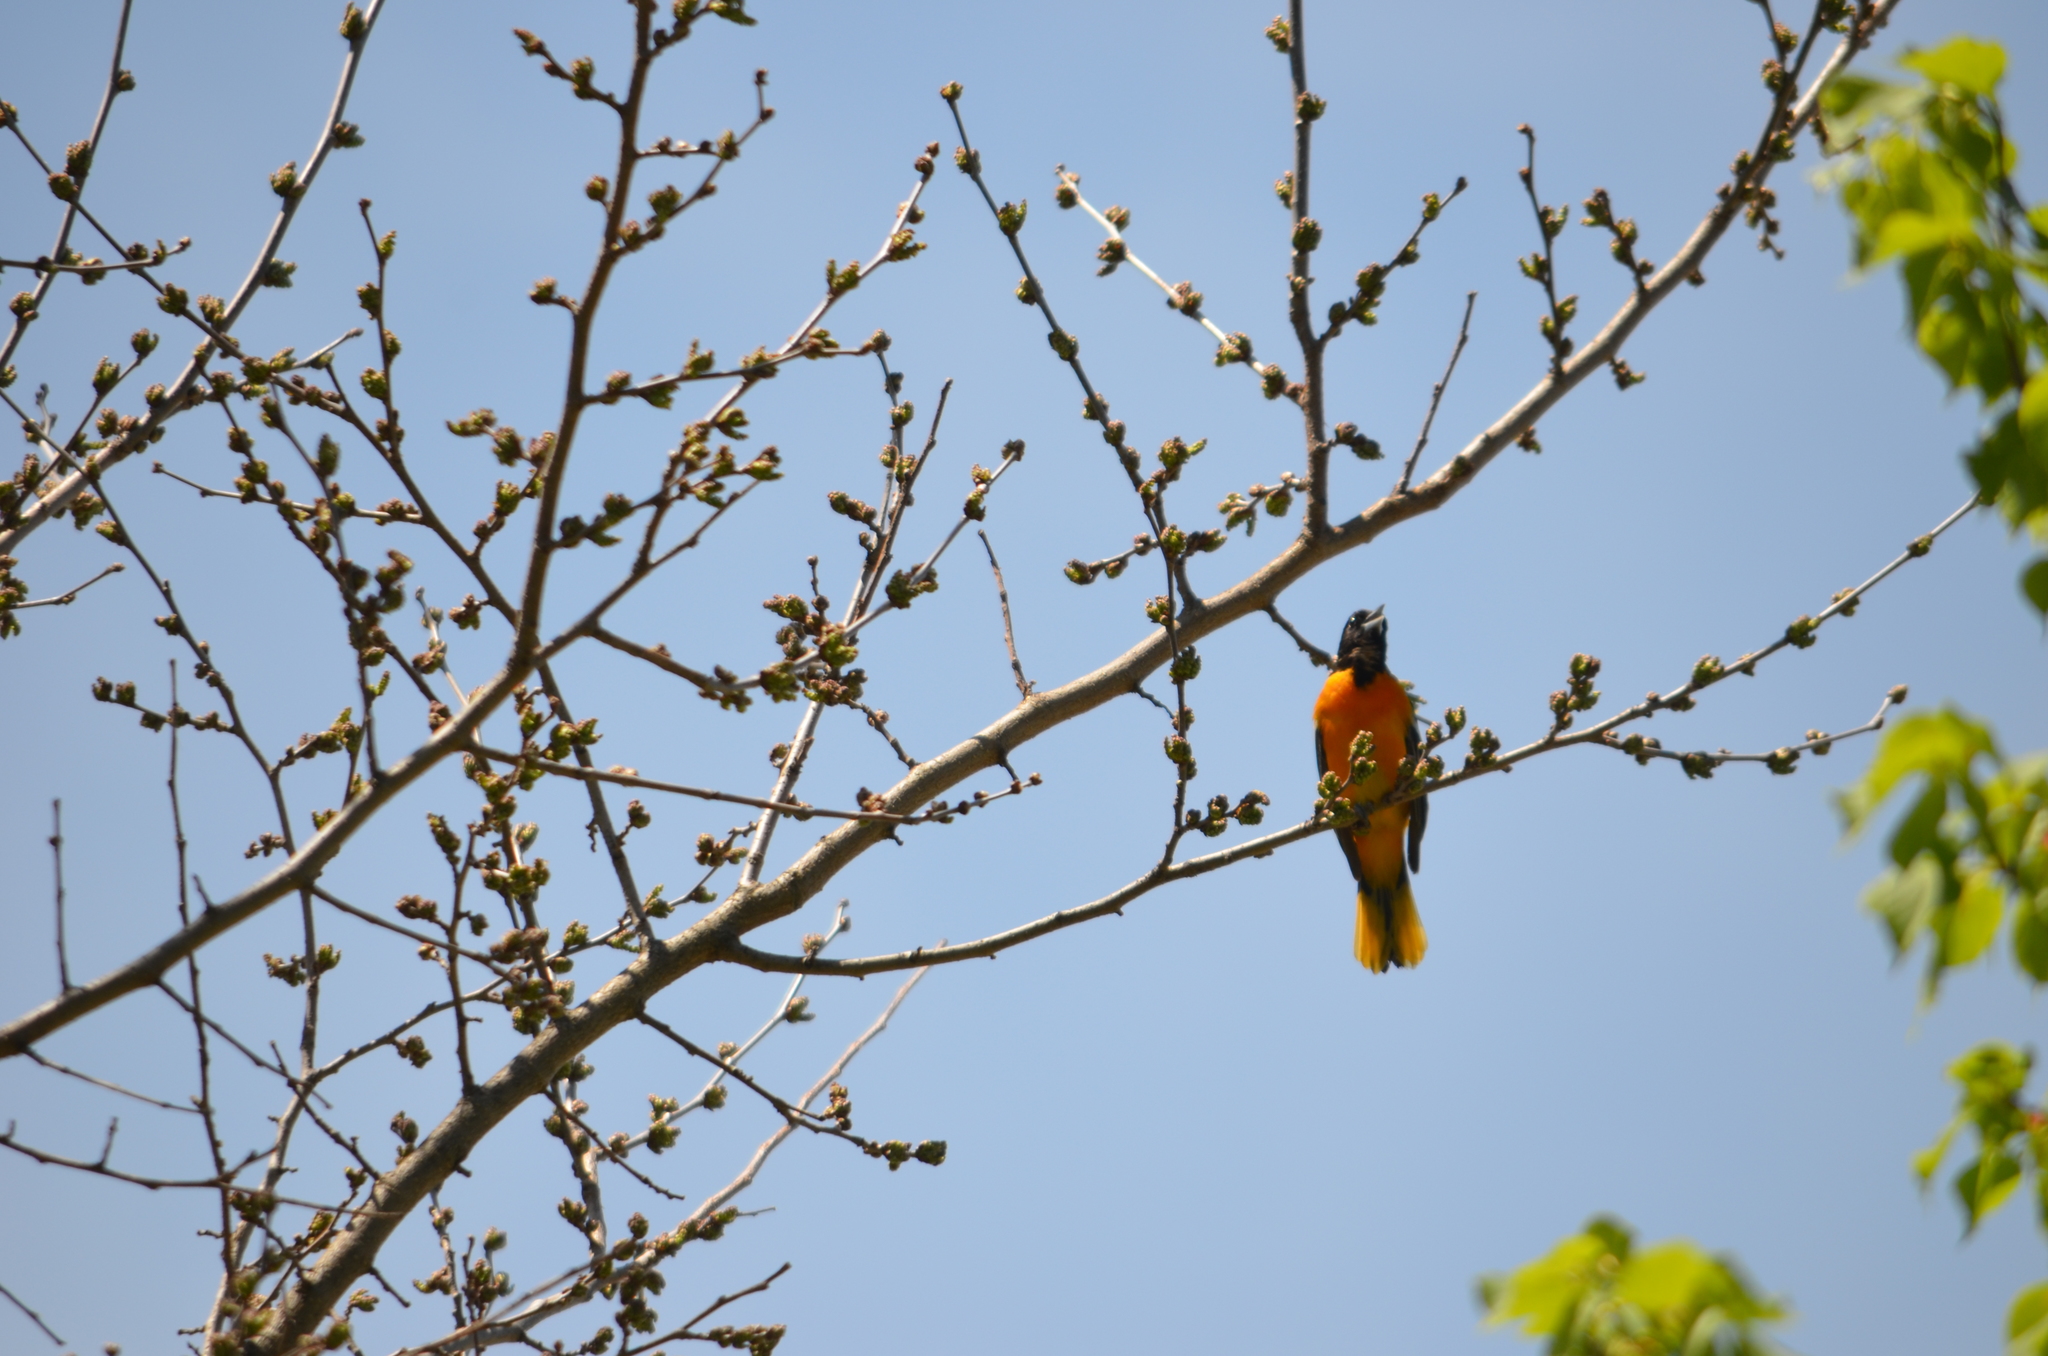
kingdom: Animalia
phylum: Chordata
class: Aves
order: Passeriformes
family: Icteridae
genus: Icterus
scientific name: Icterus galbula
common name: Baltimore oriole
